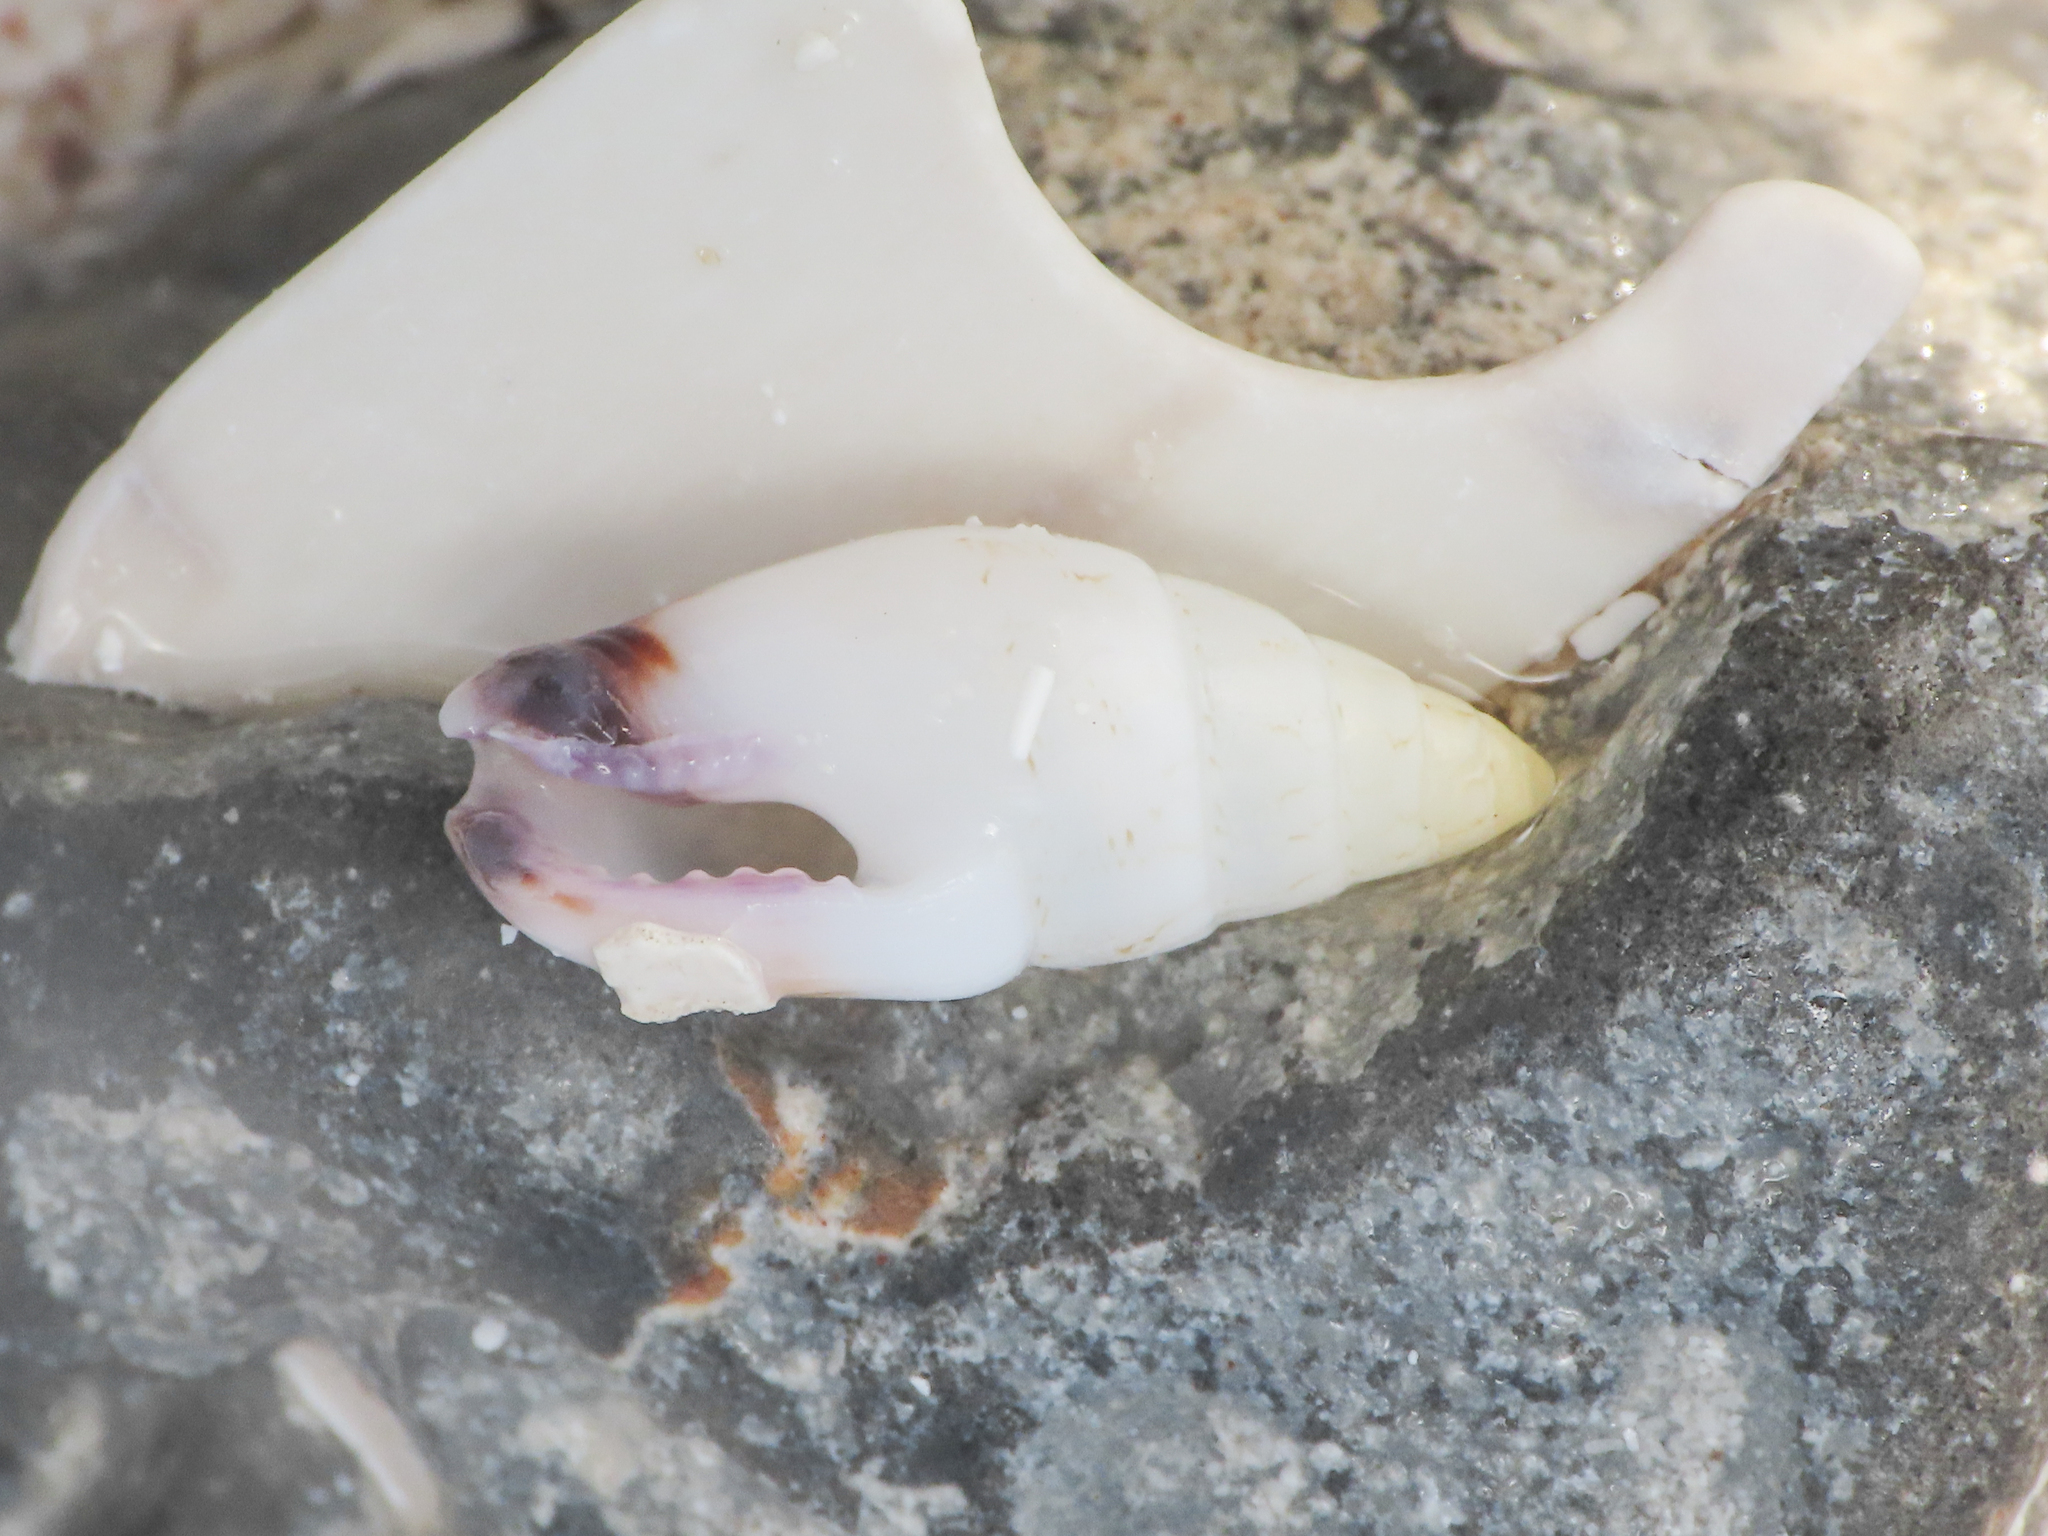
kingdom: Animalia
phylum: Mollusca
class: Gastropoda
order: Neogastropoda
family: Columbellidae
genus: Graphicomassa
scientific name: Graphicomassa ligula
